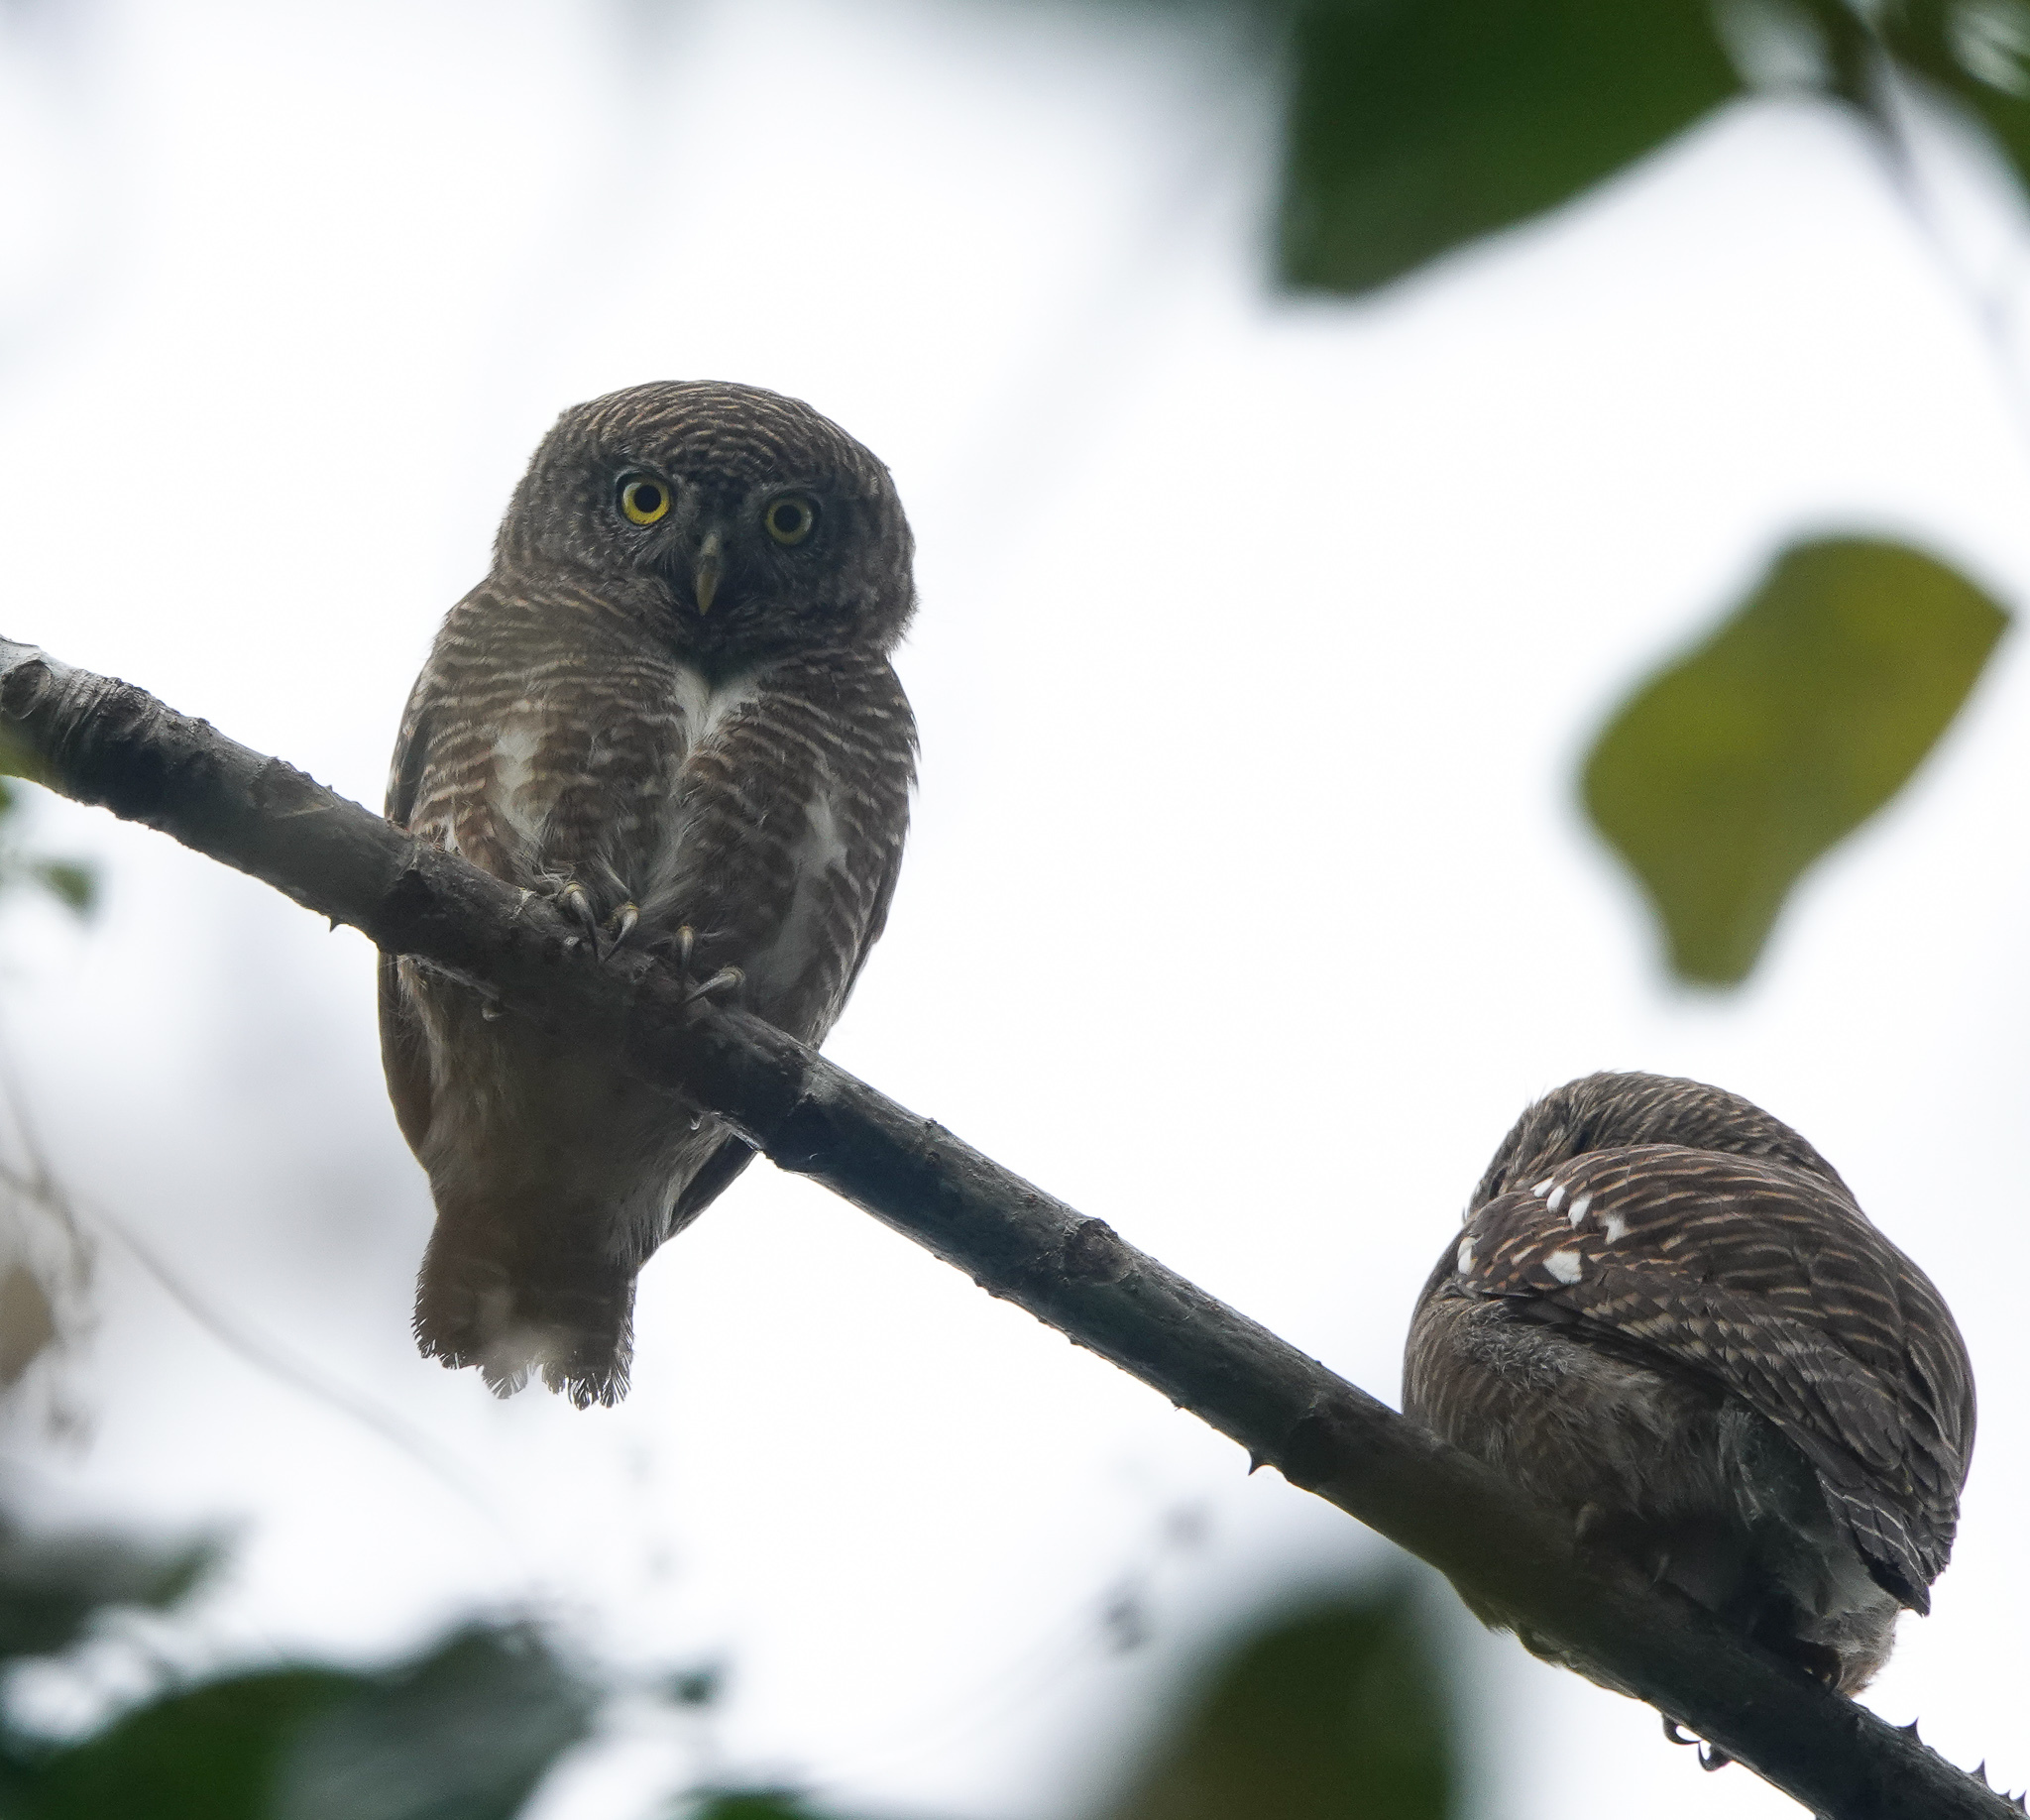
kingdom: Animalia
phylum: Chordata
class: Aves
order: Strigiformes
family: Strigidae
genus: Glaucidium
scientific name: Glaucidium cuculoides
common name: Asian barred owlet
